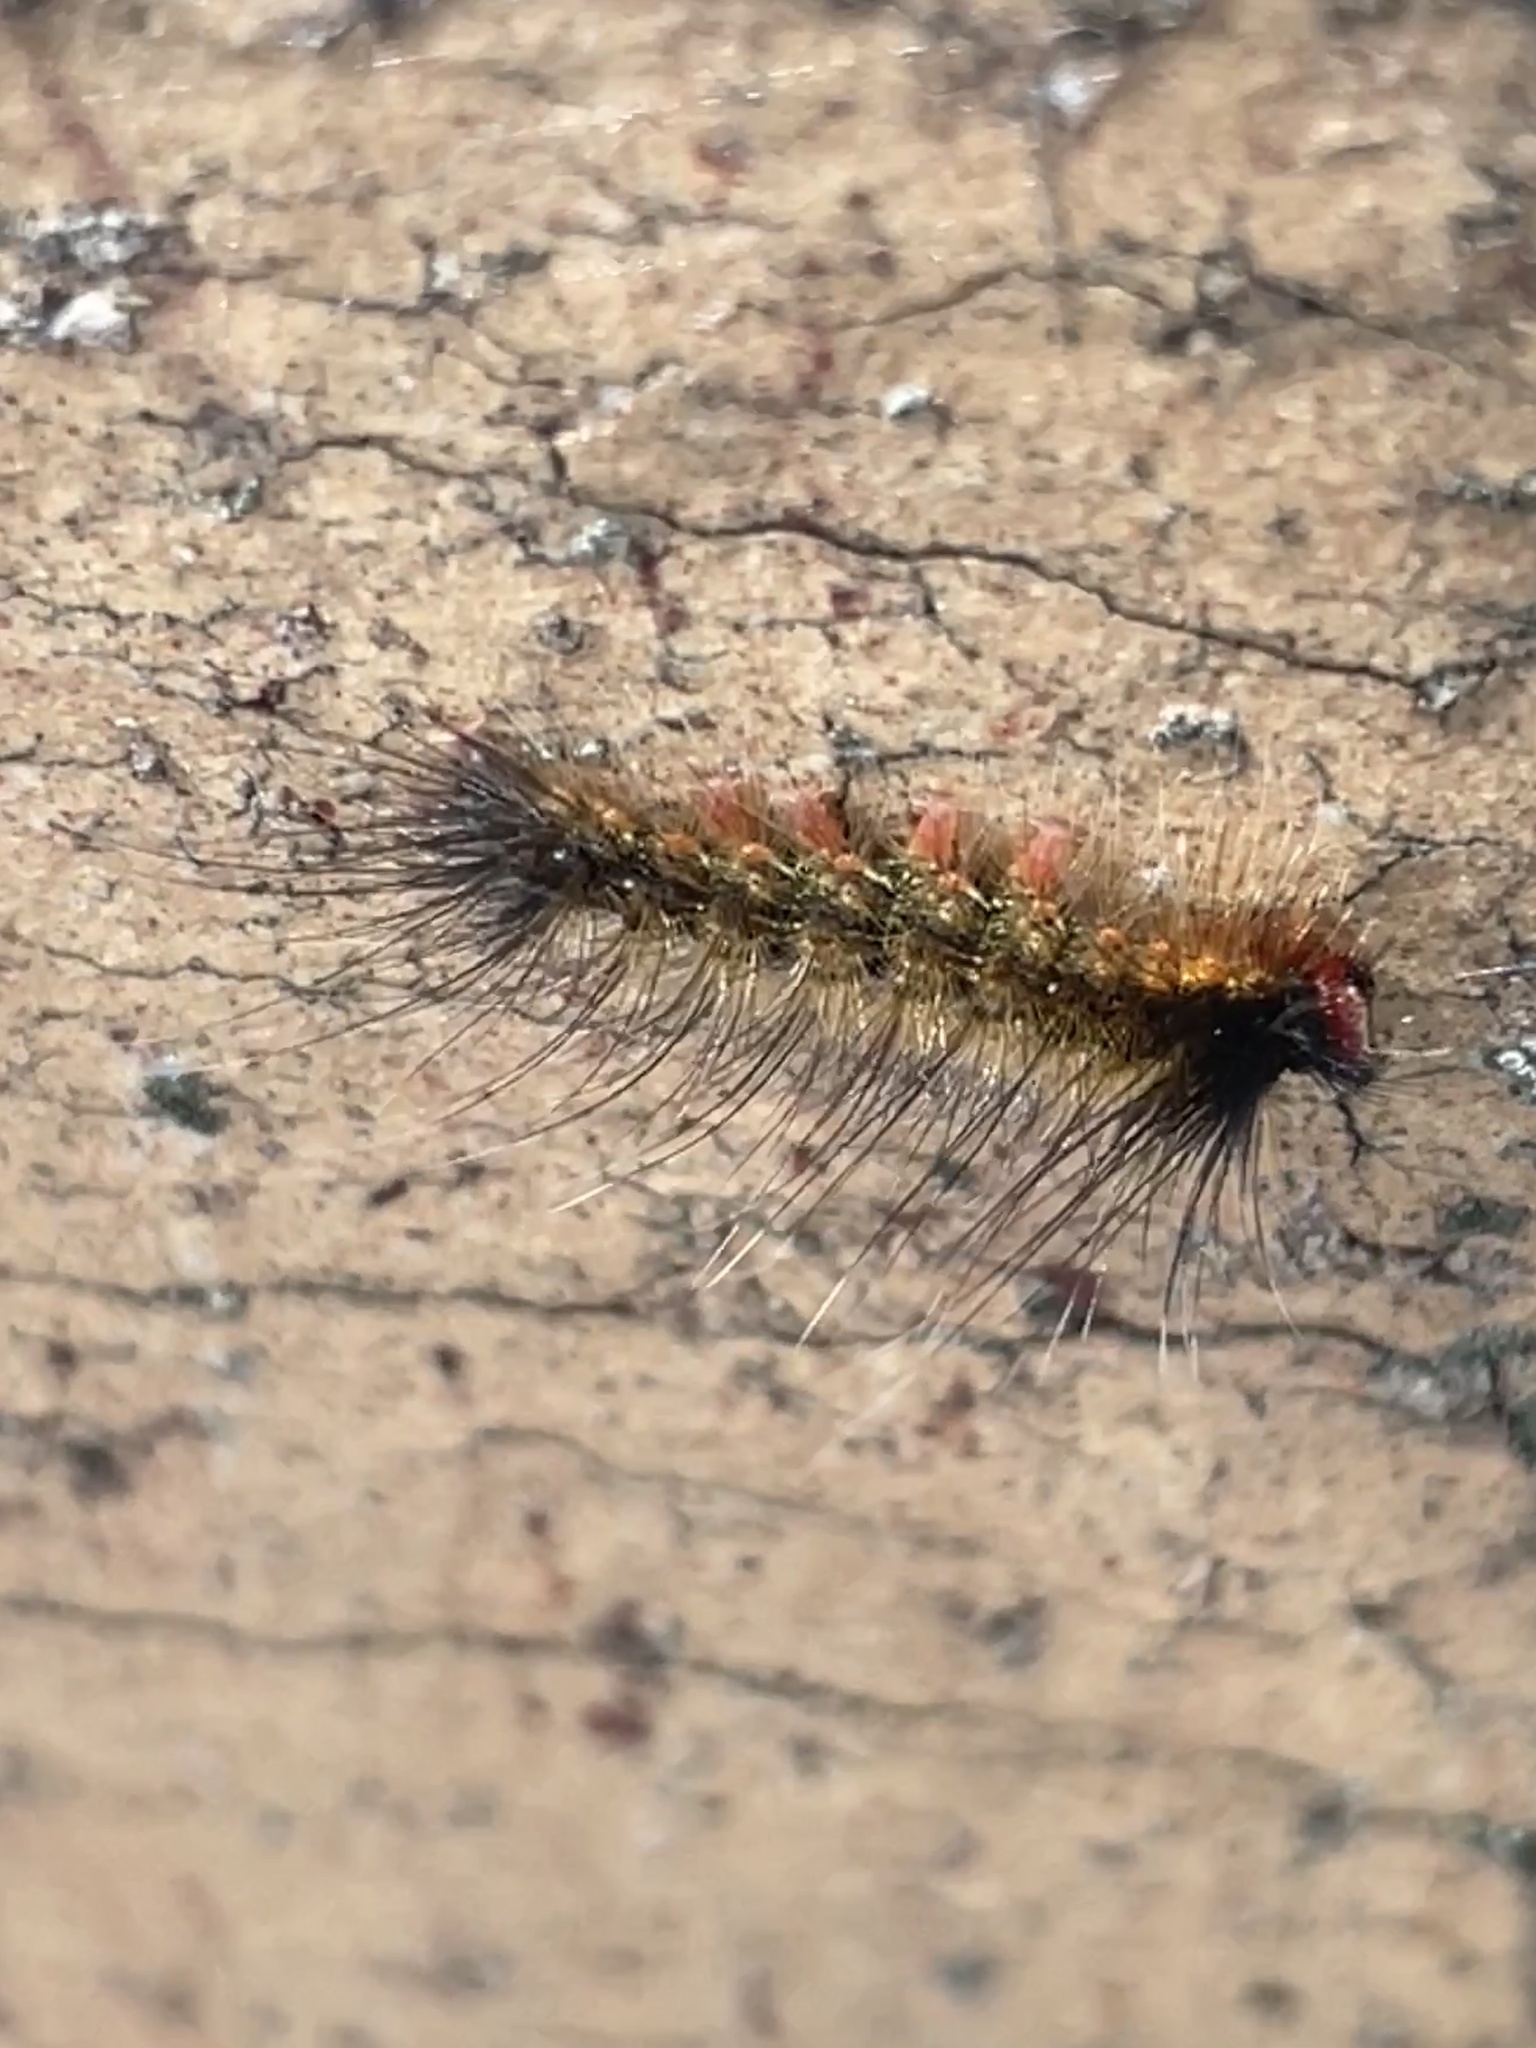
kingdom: Animalia
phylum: Arthropoda
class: Insecta
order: Lepidoptera
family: Erebidae
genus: Orgyia
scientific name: Orgyia
